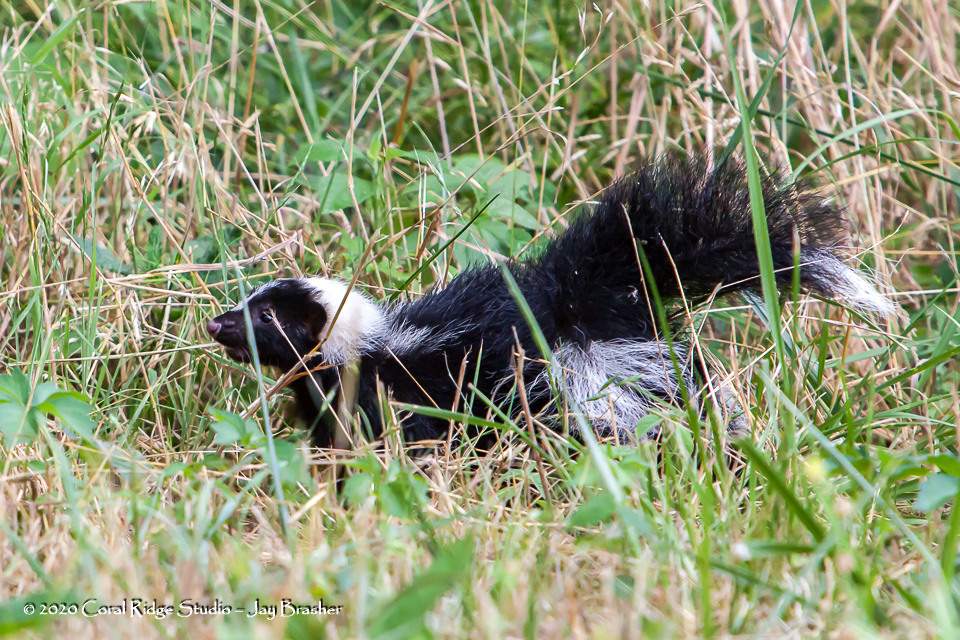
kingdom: Animalia
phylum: Chordata
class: Mammalia
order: Carnivora
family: Mephitidae
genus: Mephitis
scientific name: Mephitis mephitis
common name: Striped skunk
